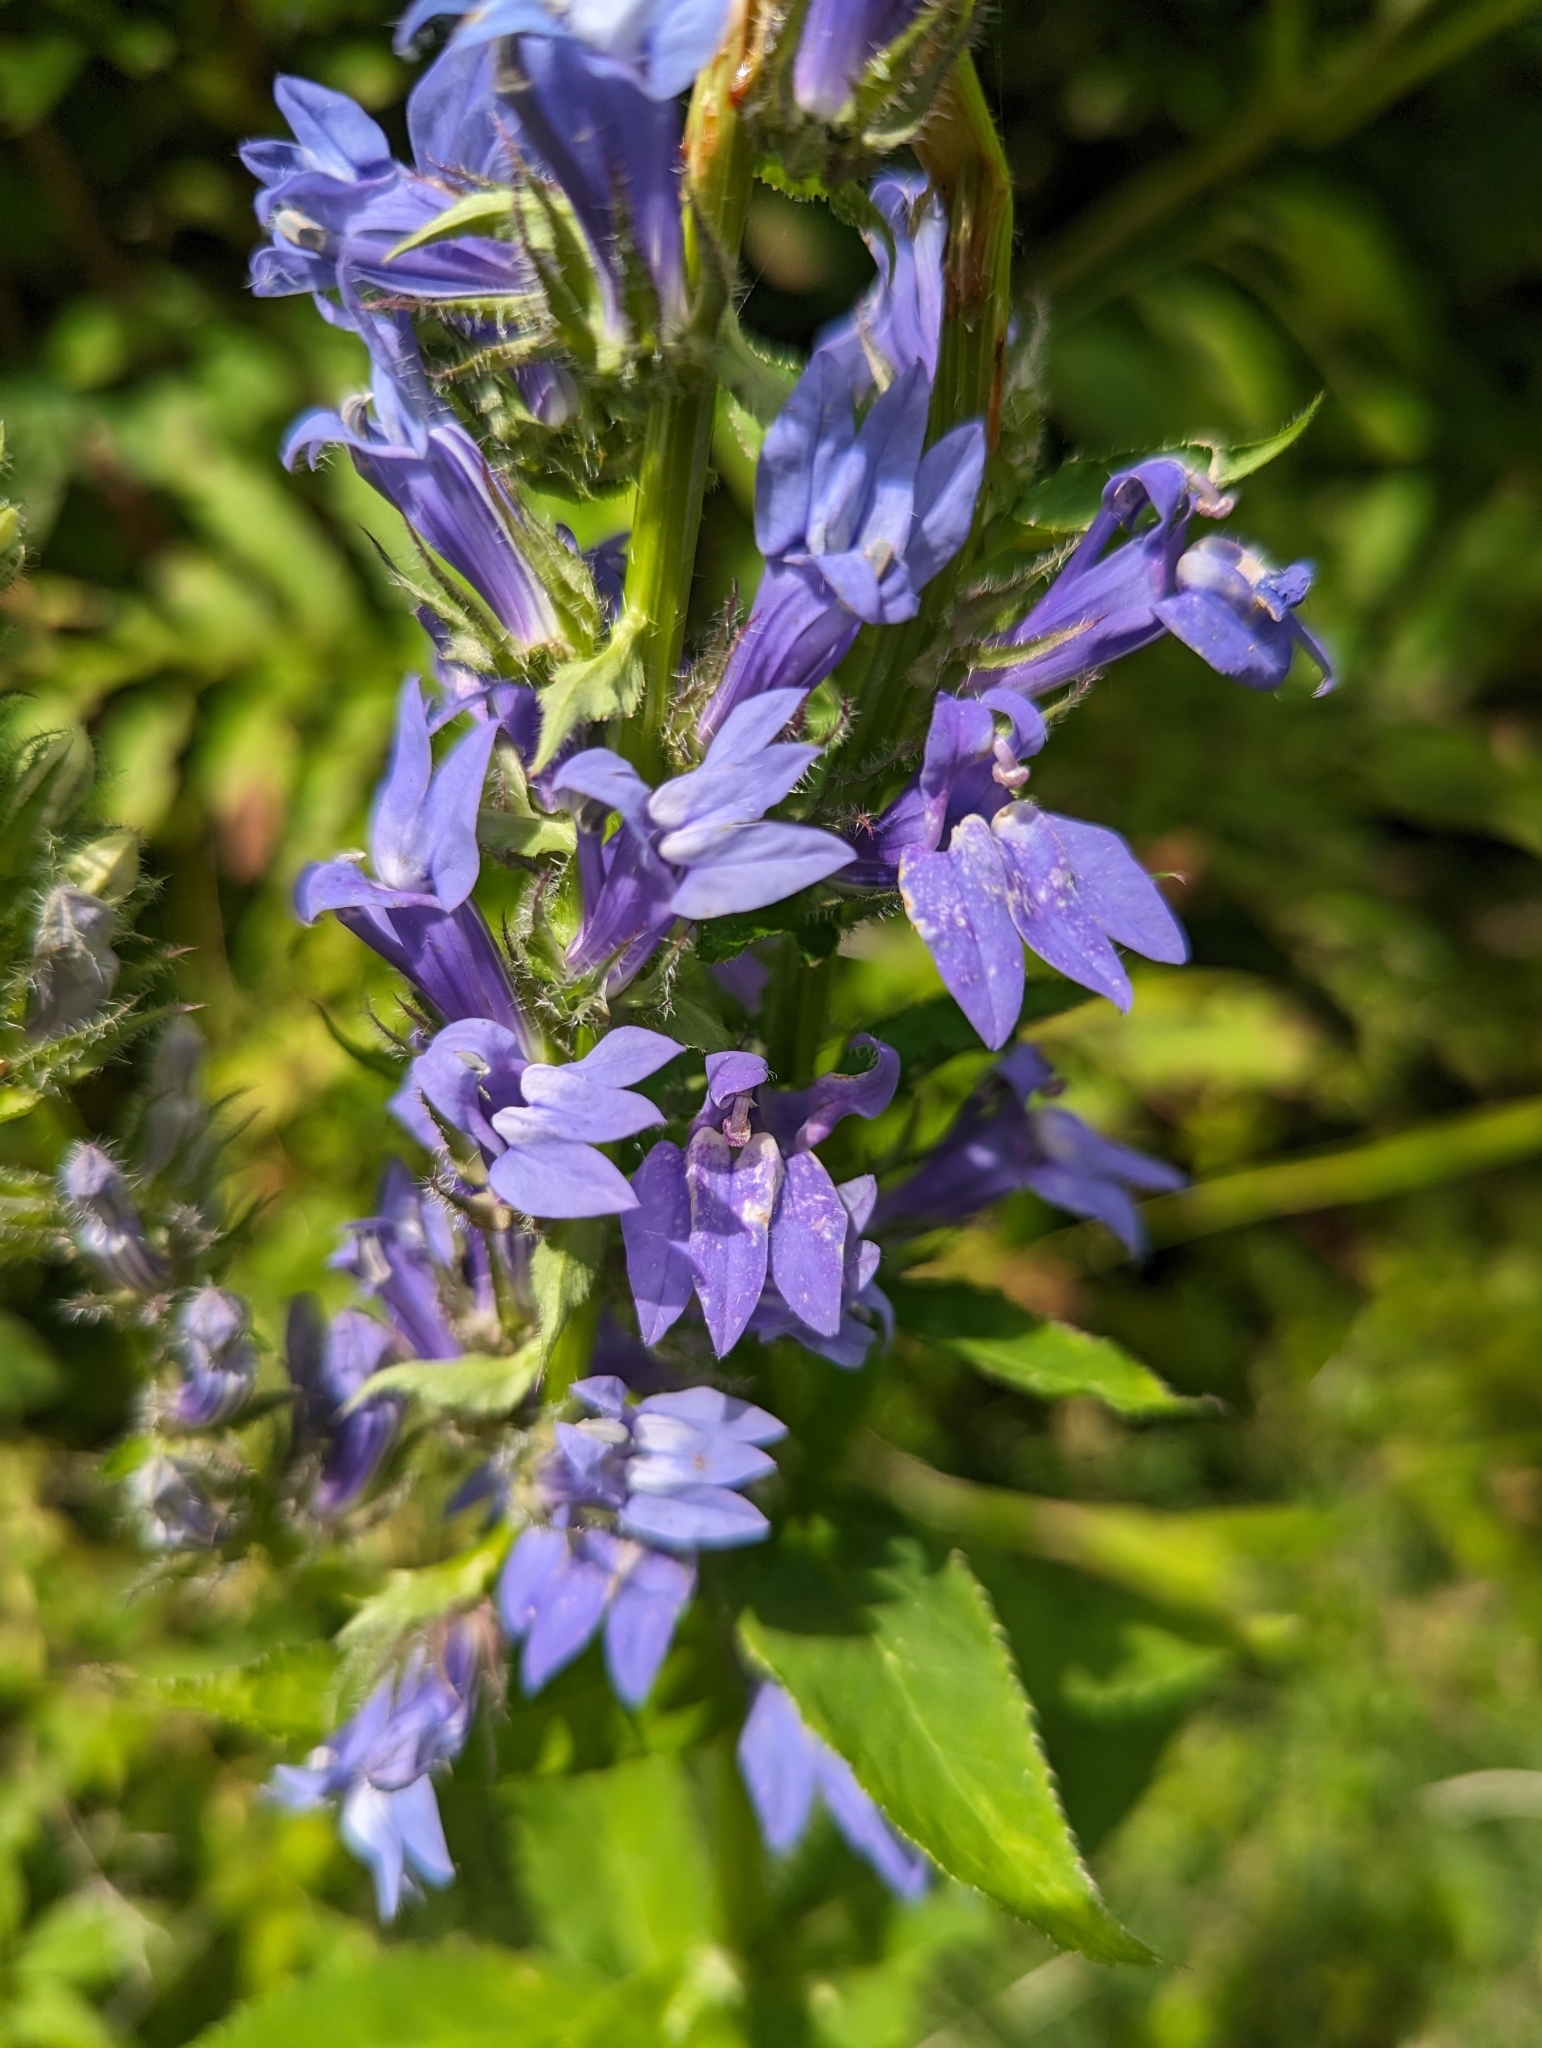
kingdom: Plantae
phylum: Tracheophyta
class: Magnoliopsida
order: Asterales
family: Campanulaceae
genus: Lobelia
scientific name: Lobelia siphilitica
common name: Great lobelia
